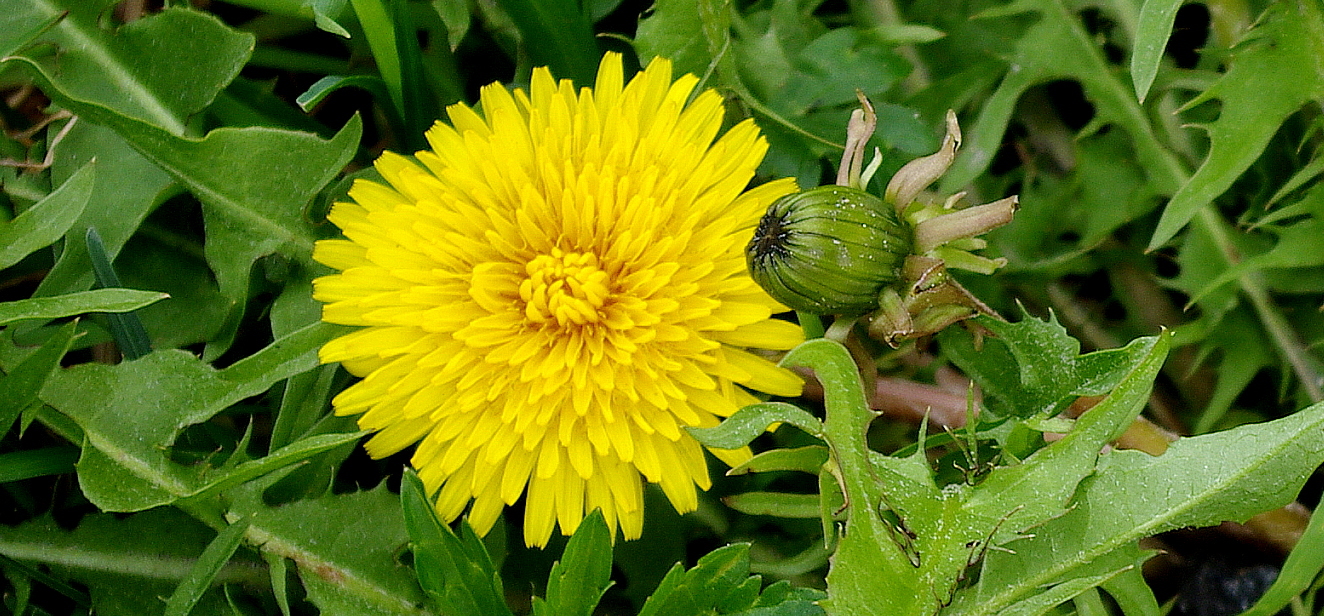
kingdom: Plantae
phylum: Tracheophyta
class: Magnoliopsida
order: Asterales
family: Asteraceae
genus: Taraxacum
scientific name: Taraxacum officinale
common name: Common dandelion
